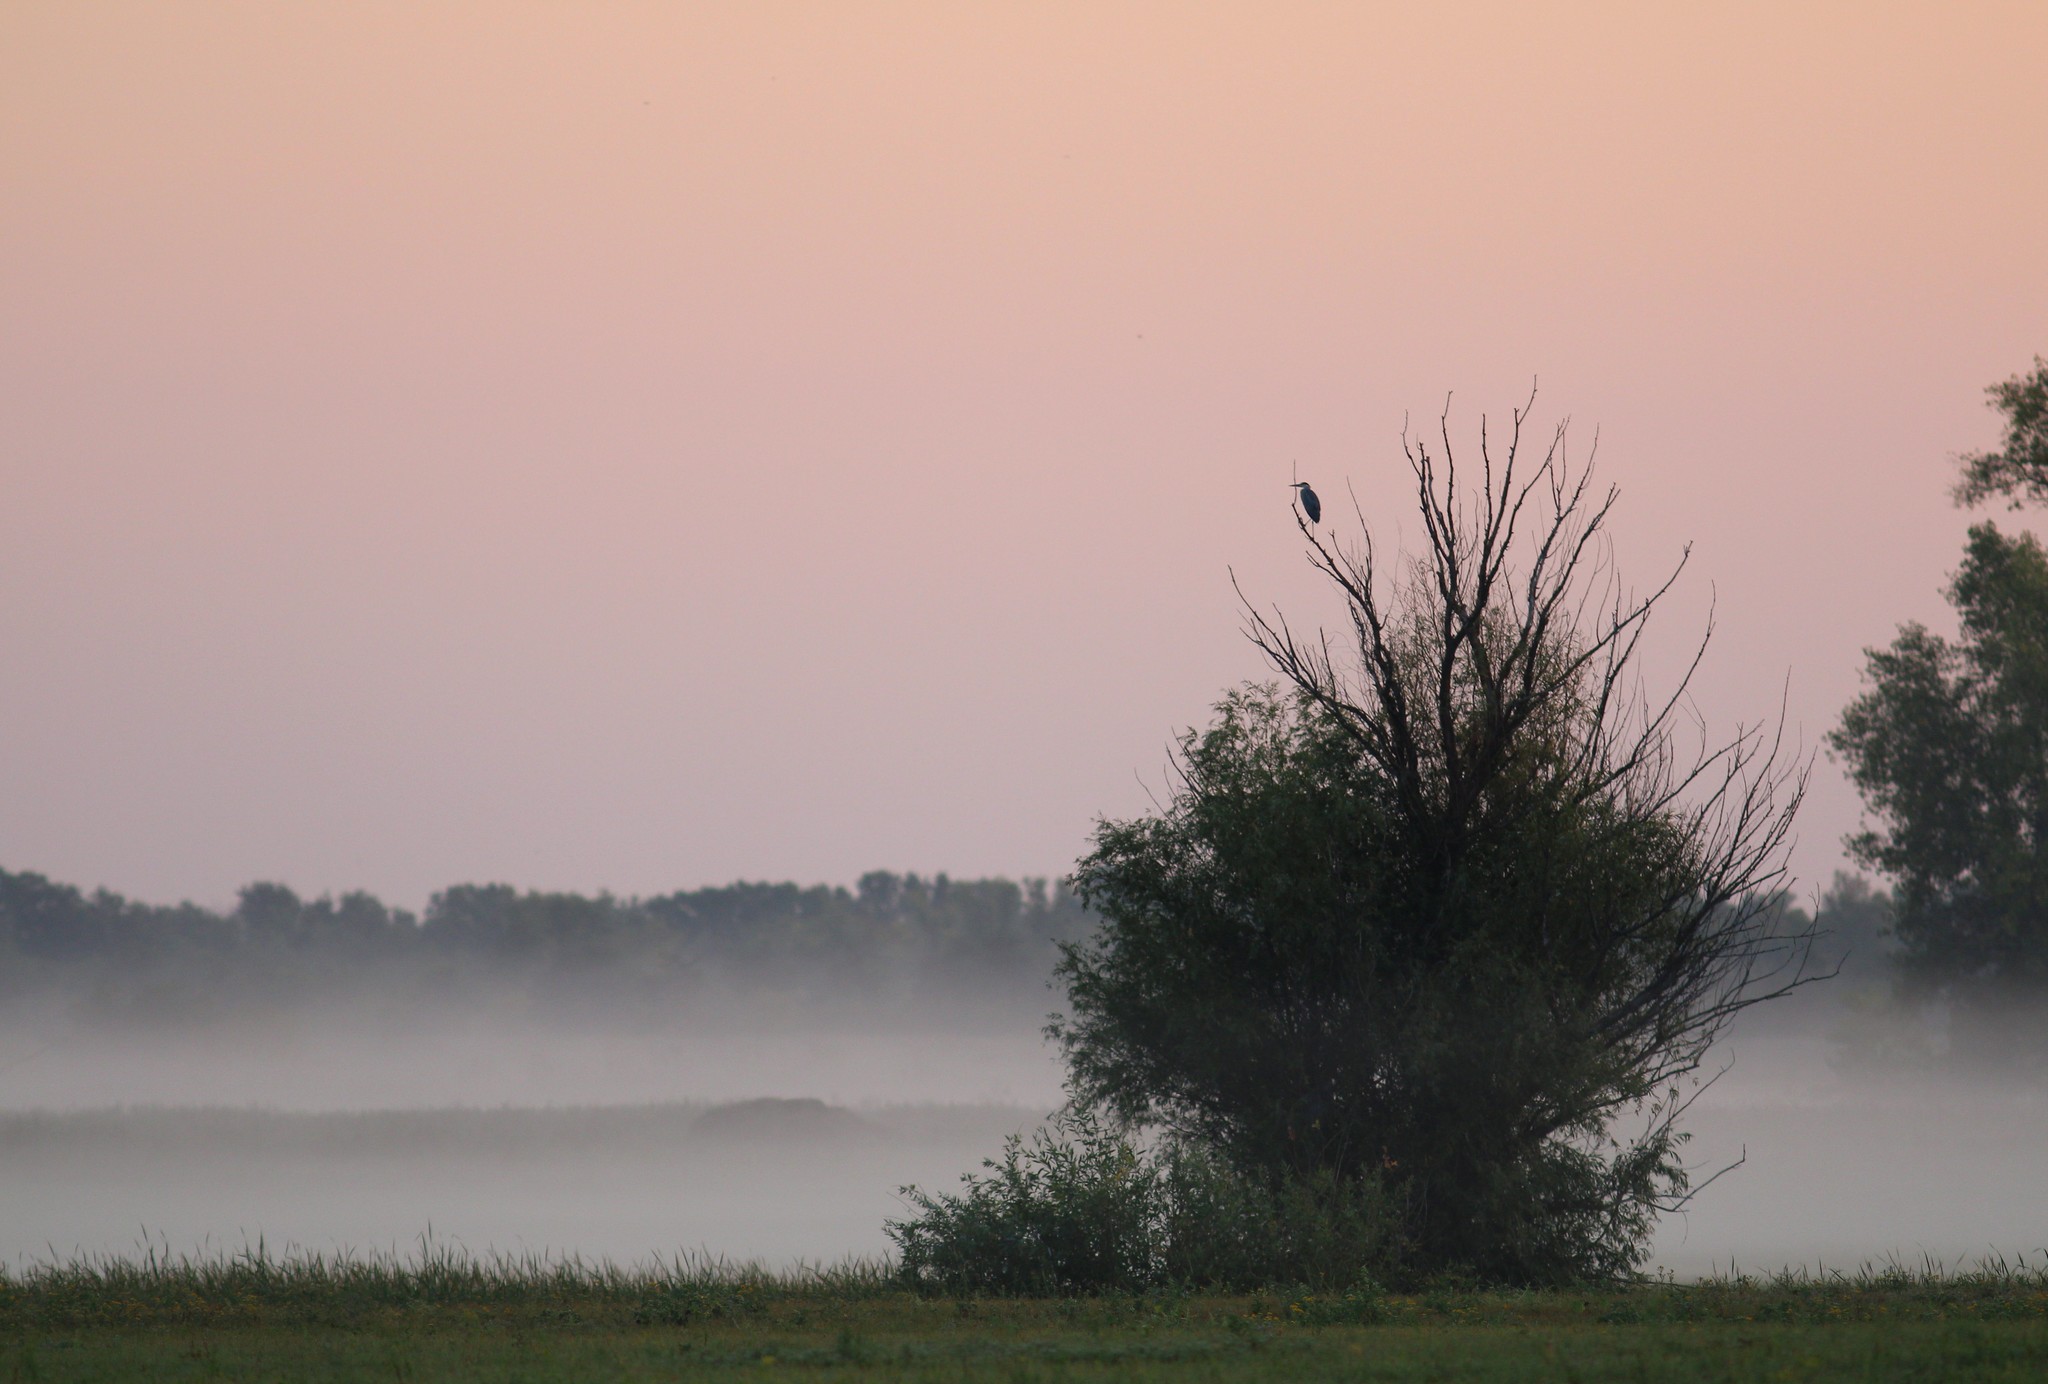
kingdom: Animalia
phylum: Chordata
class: Aves
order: Pelecaniformes
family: Ardeidae
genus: Ardea
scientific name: Ardea cinerea
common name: Grey heron
